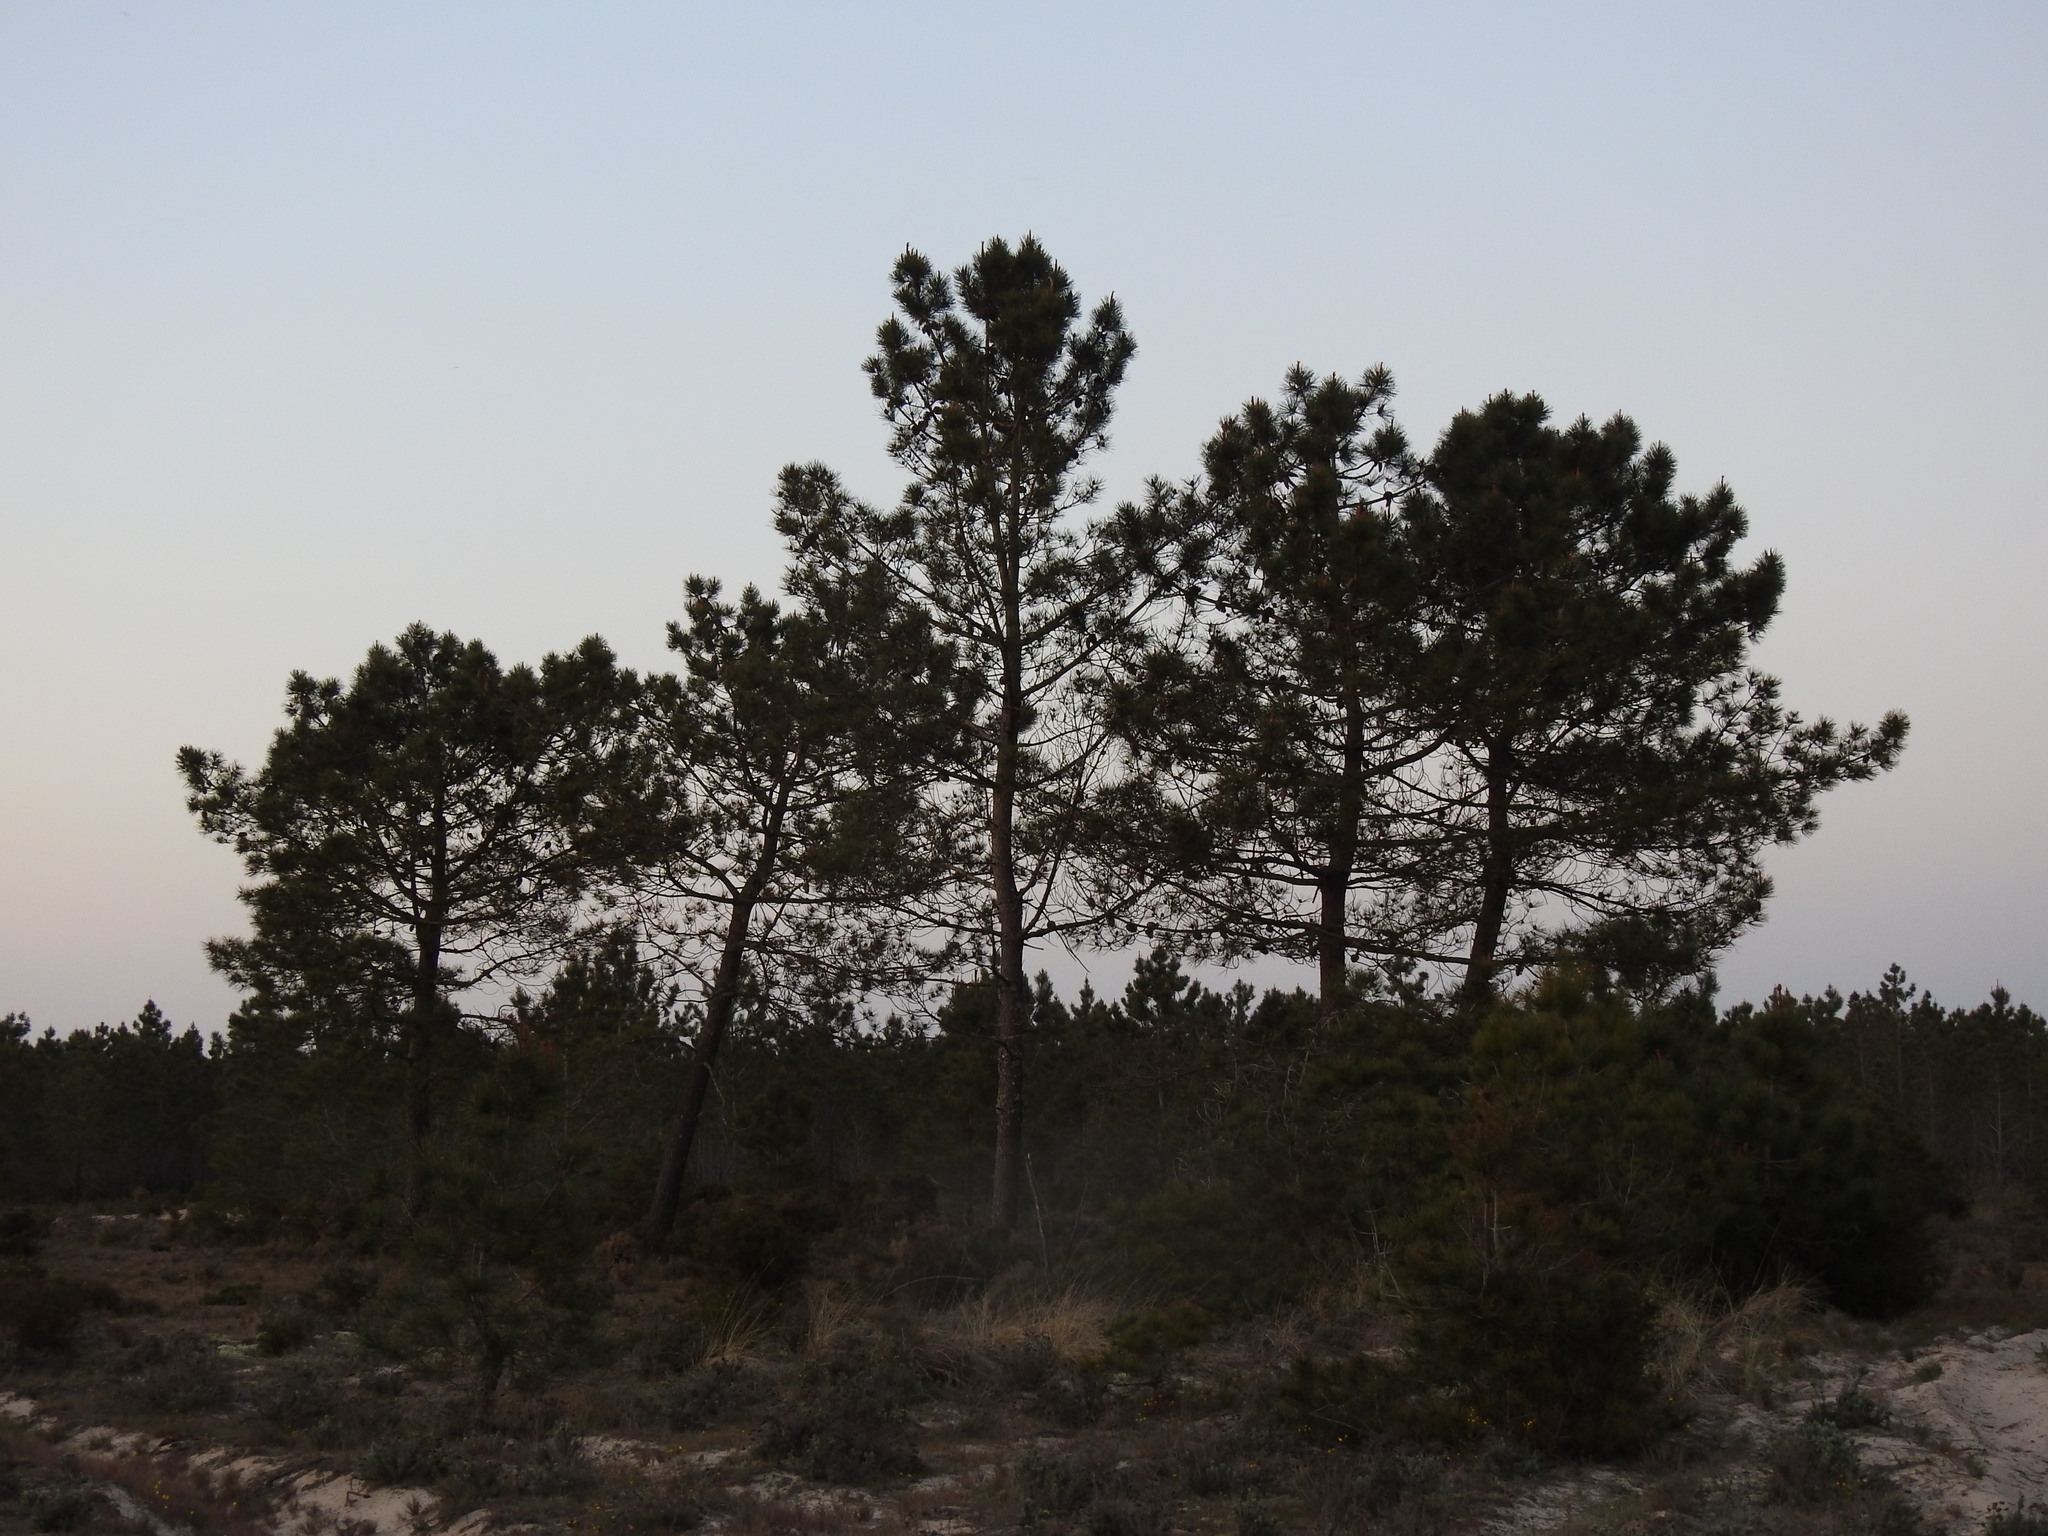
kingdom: Plantae
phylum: Tracheophyta
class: Pinopsida
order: Pinales
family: Pinaceae
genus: Pinus
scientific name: Pinus pinaster
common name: Maritime pine
